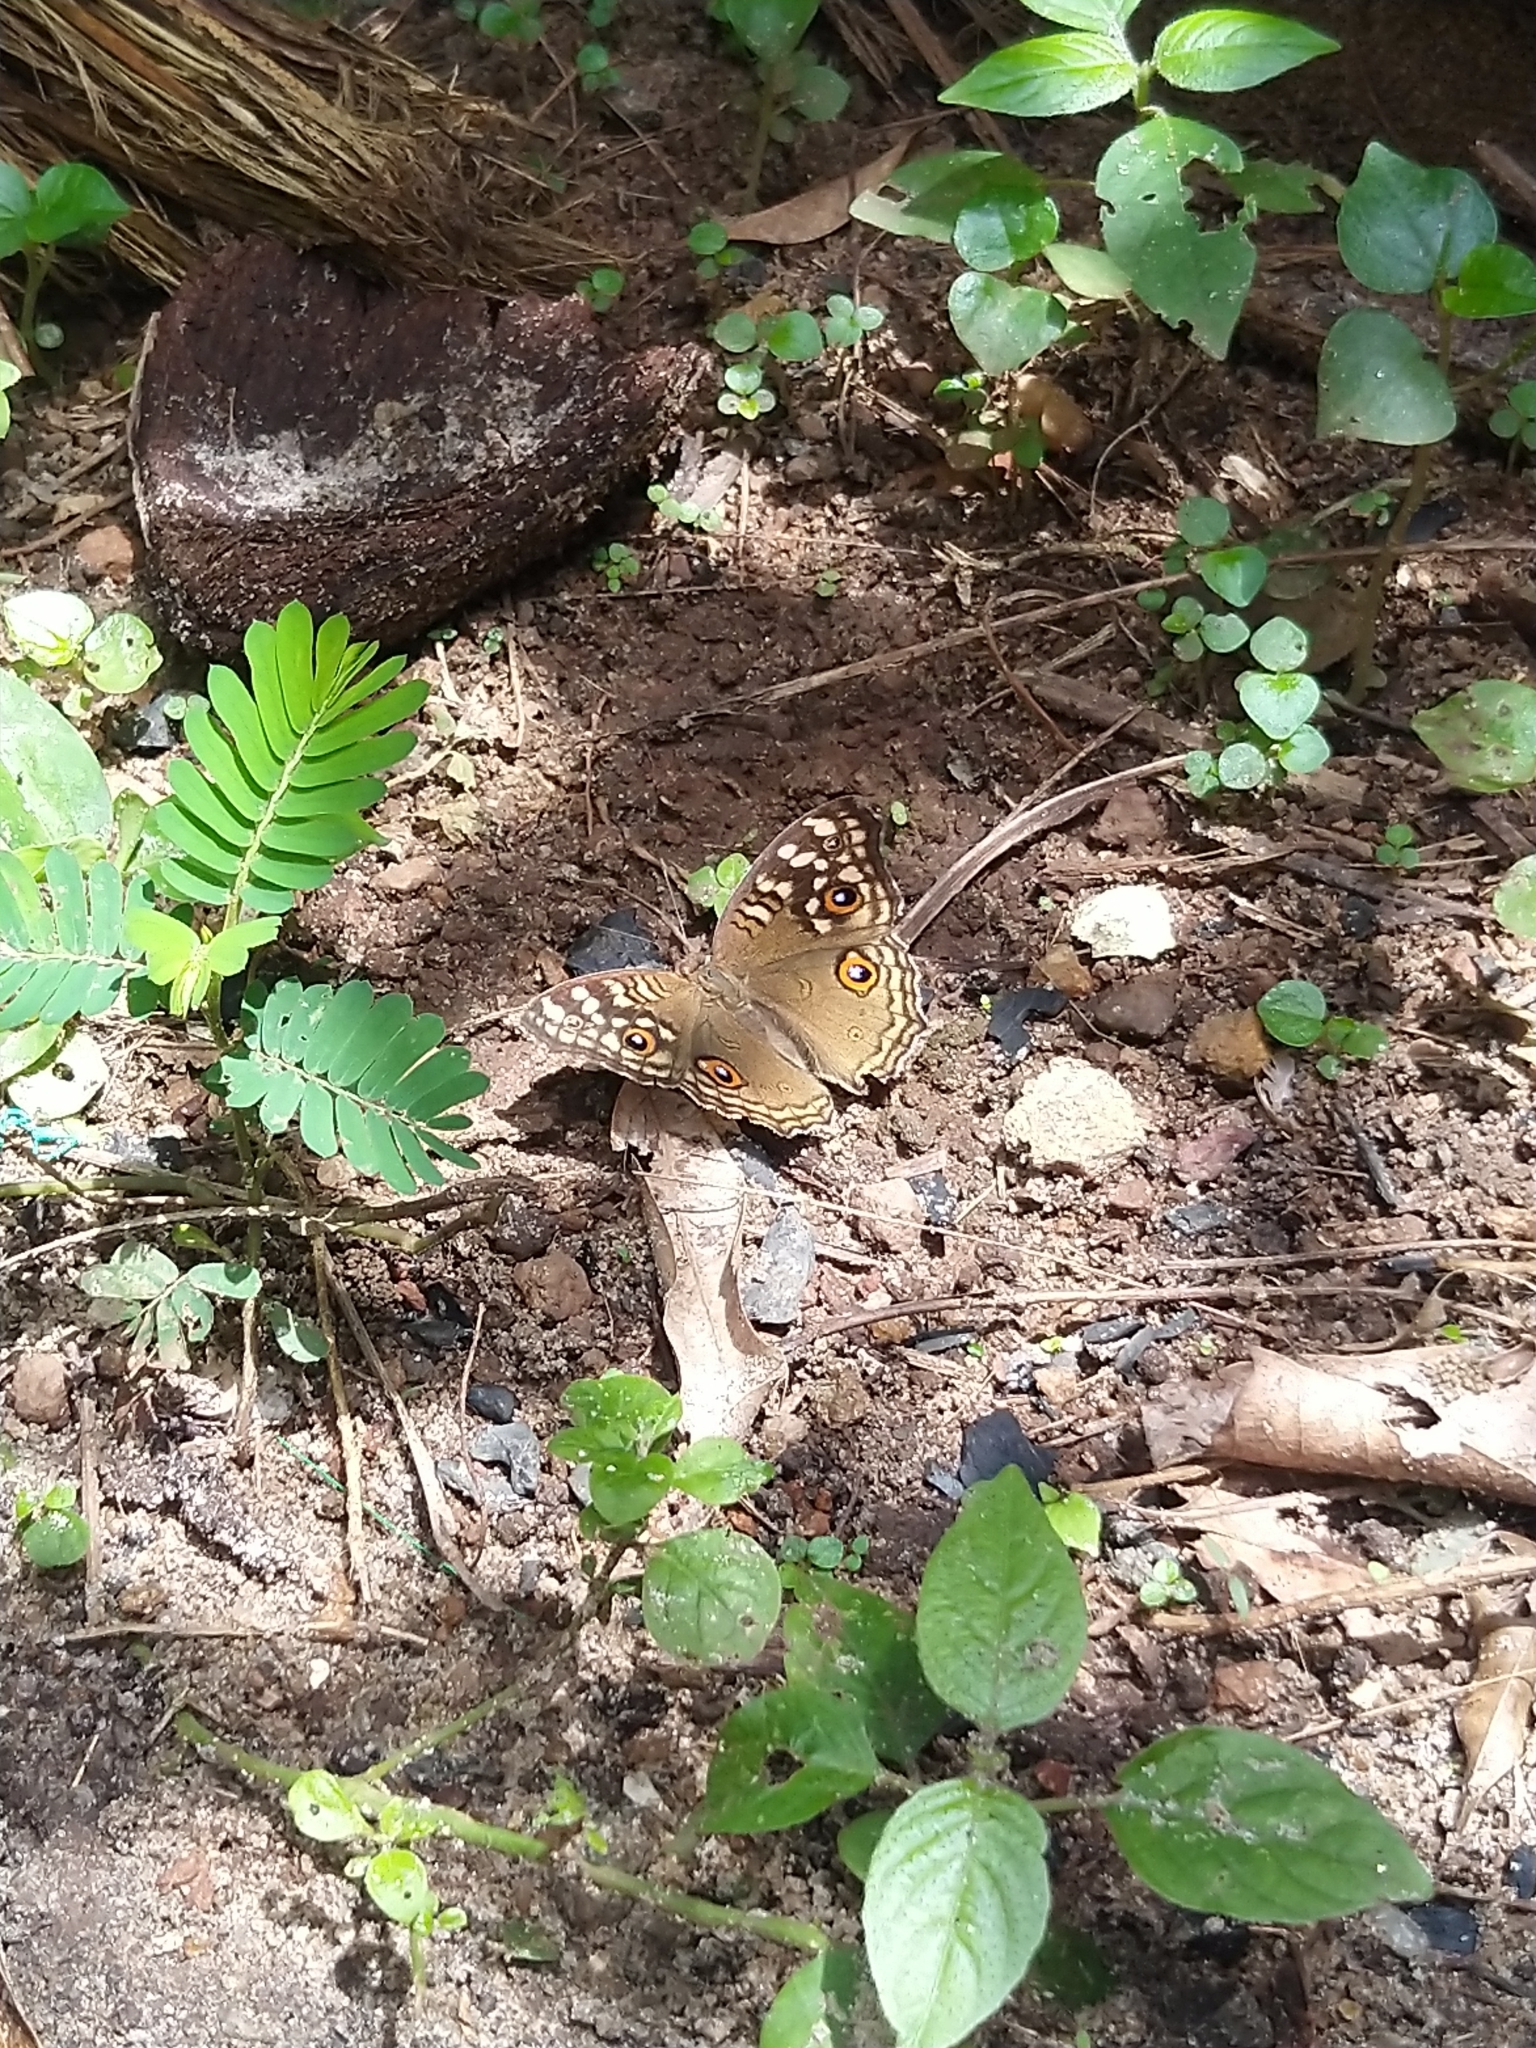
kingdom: Animalia
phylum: Arthropoda
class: Insecta
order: Lepidoptera
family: Nymphalidae
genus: Junonia
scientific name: Junonia lemonias
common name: Lemon pansy
